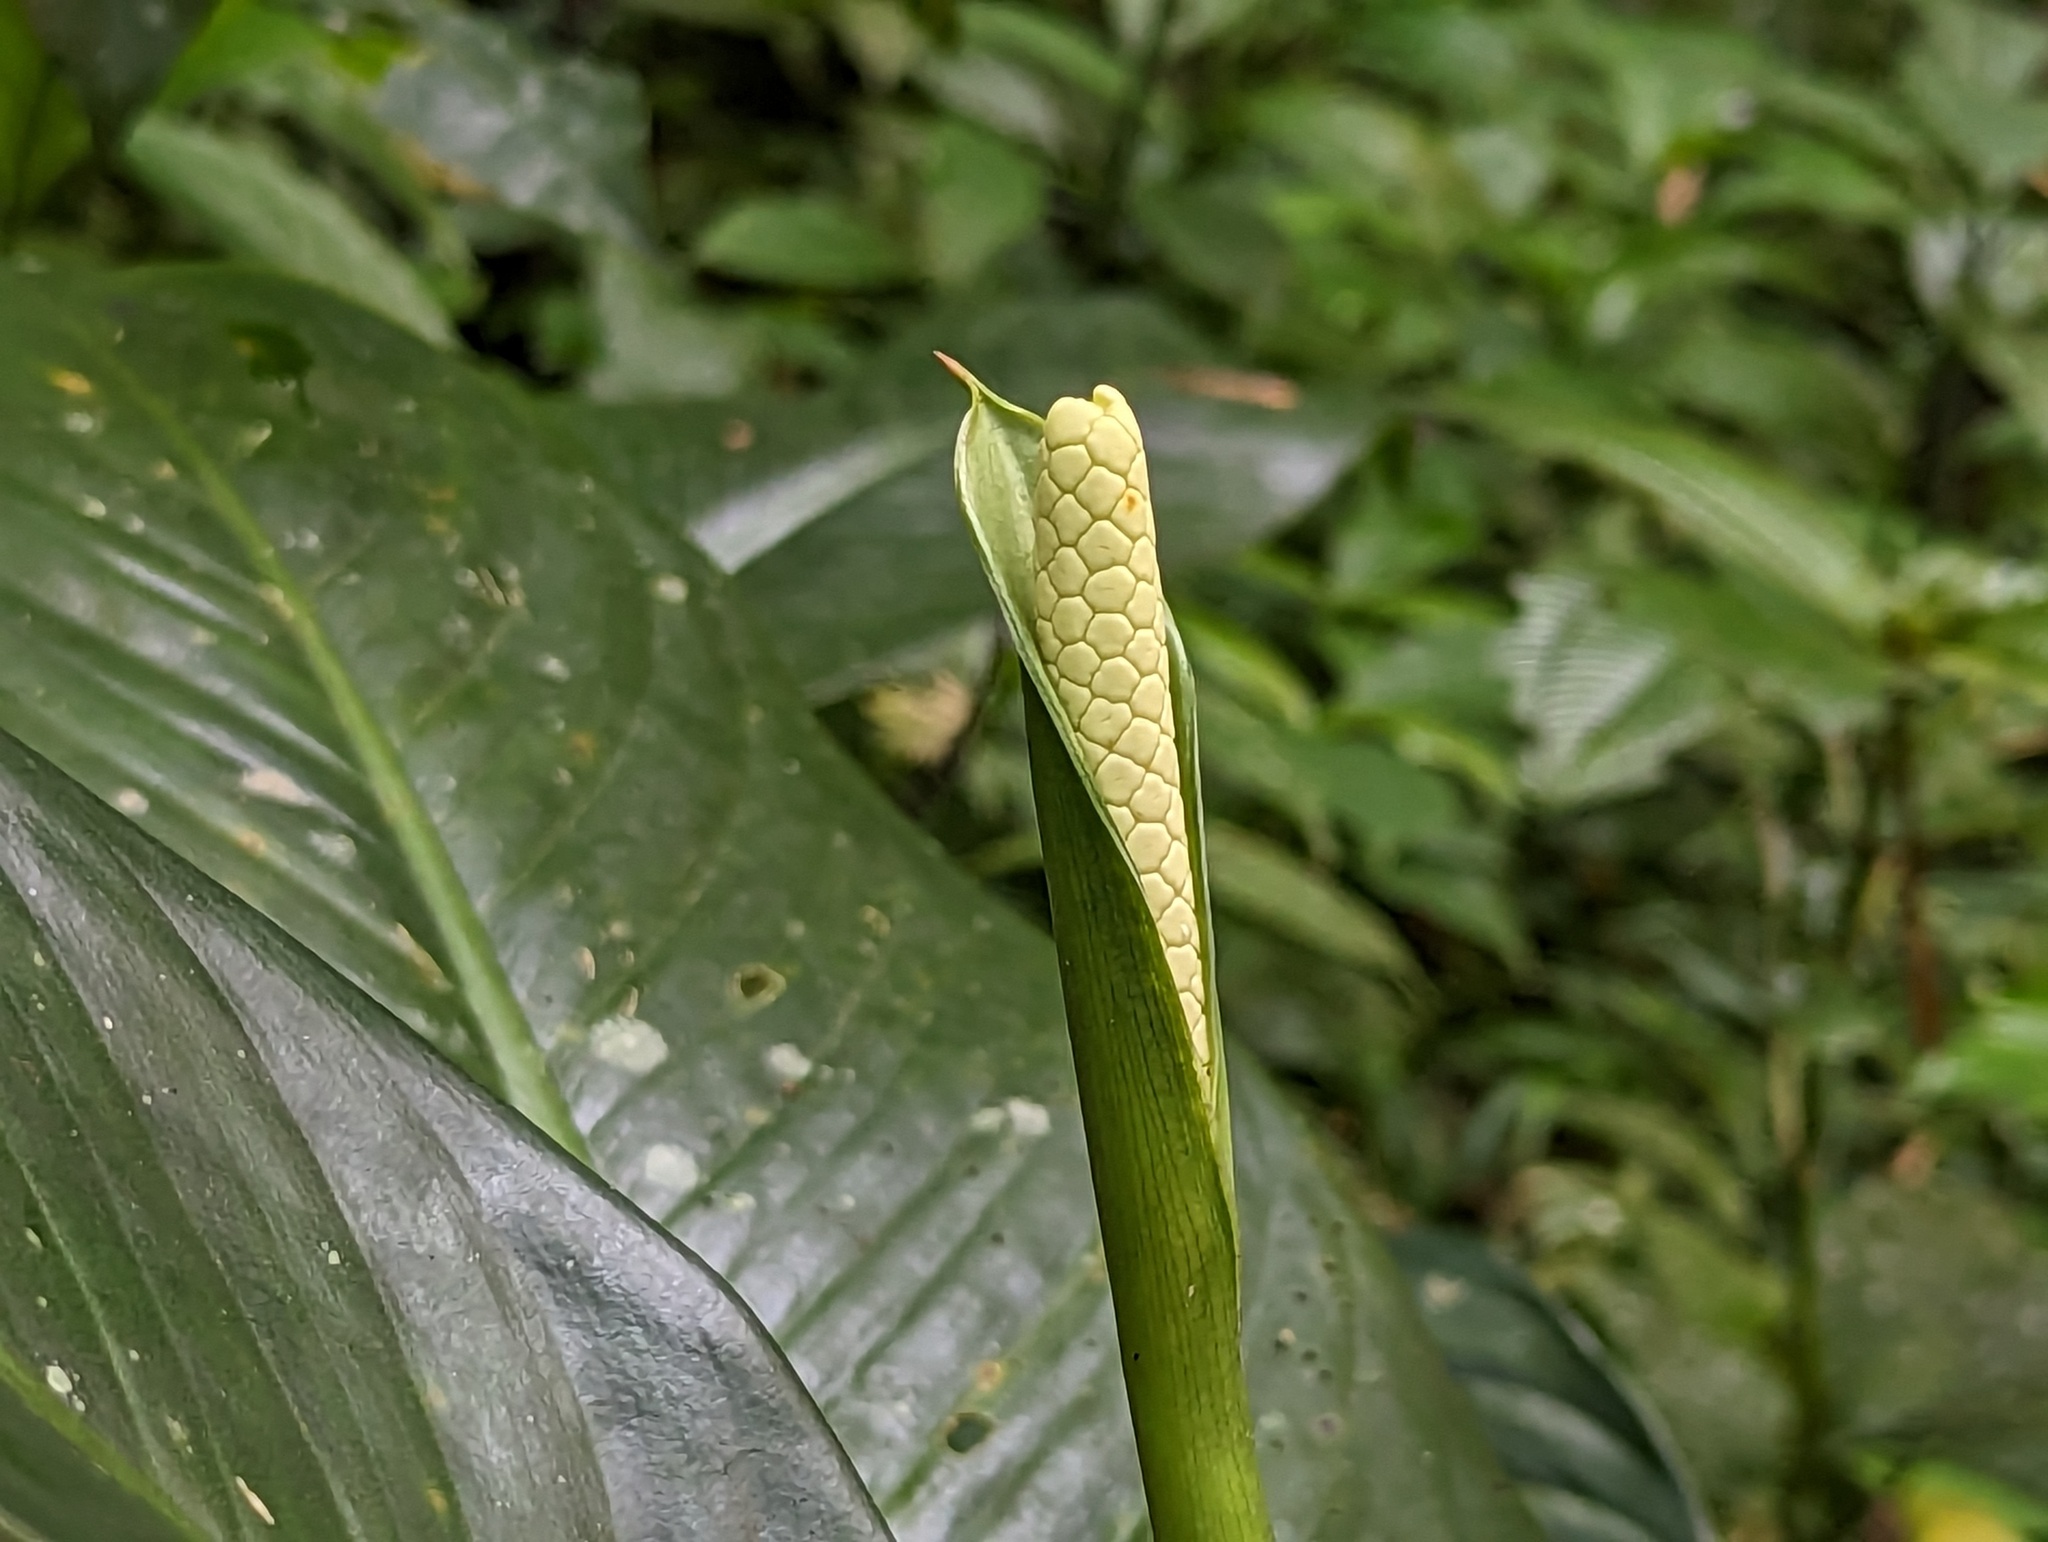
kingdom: Plantae
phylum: Tracheophyta
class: Liliopsida
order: Alismatales
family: Araceae
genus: Dieffenbachia
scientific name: Dieffenbachia seguine
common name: Dumbcane
